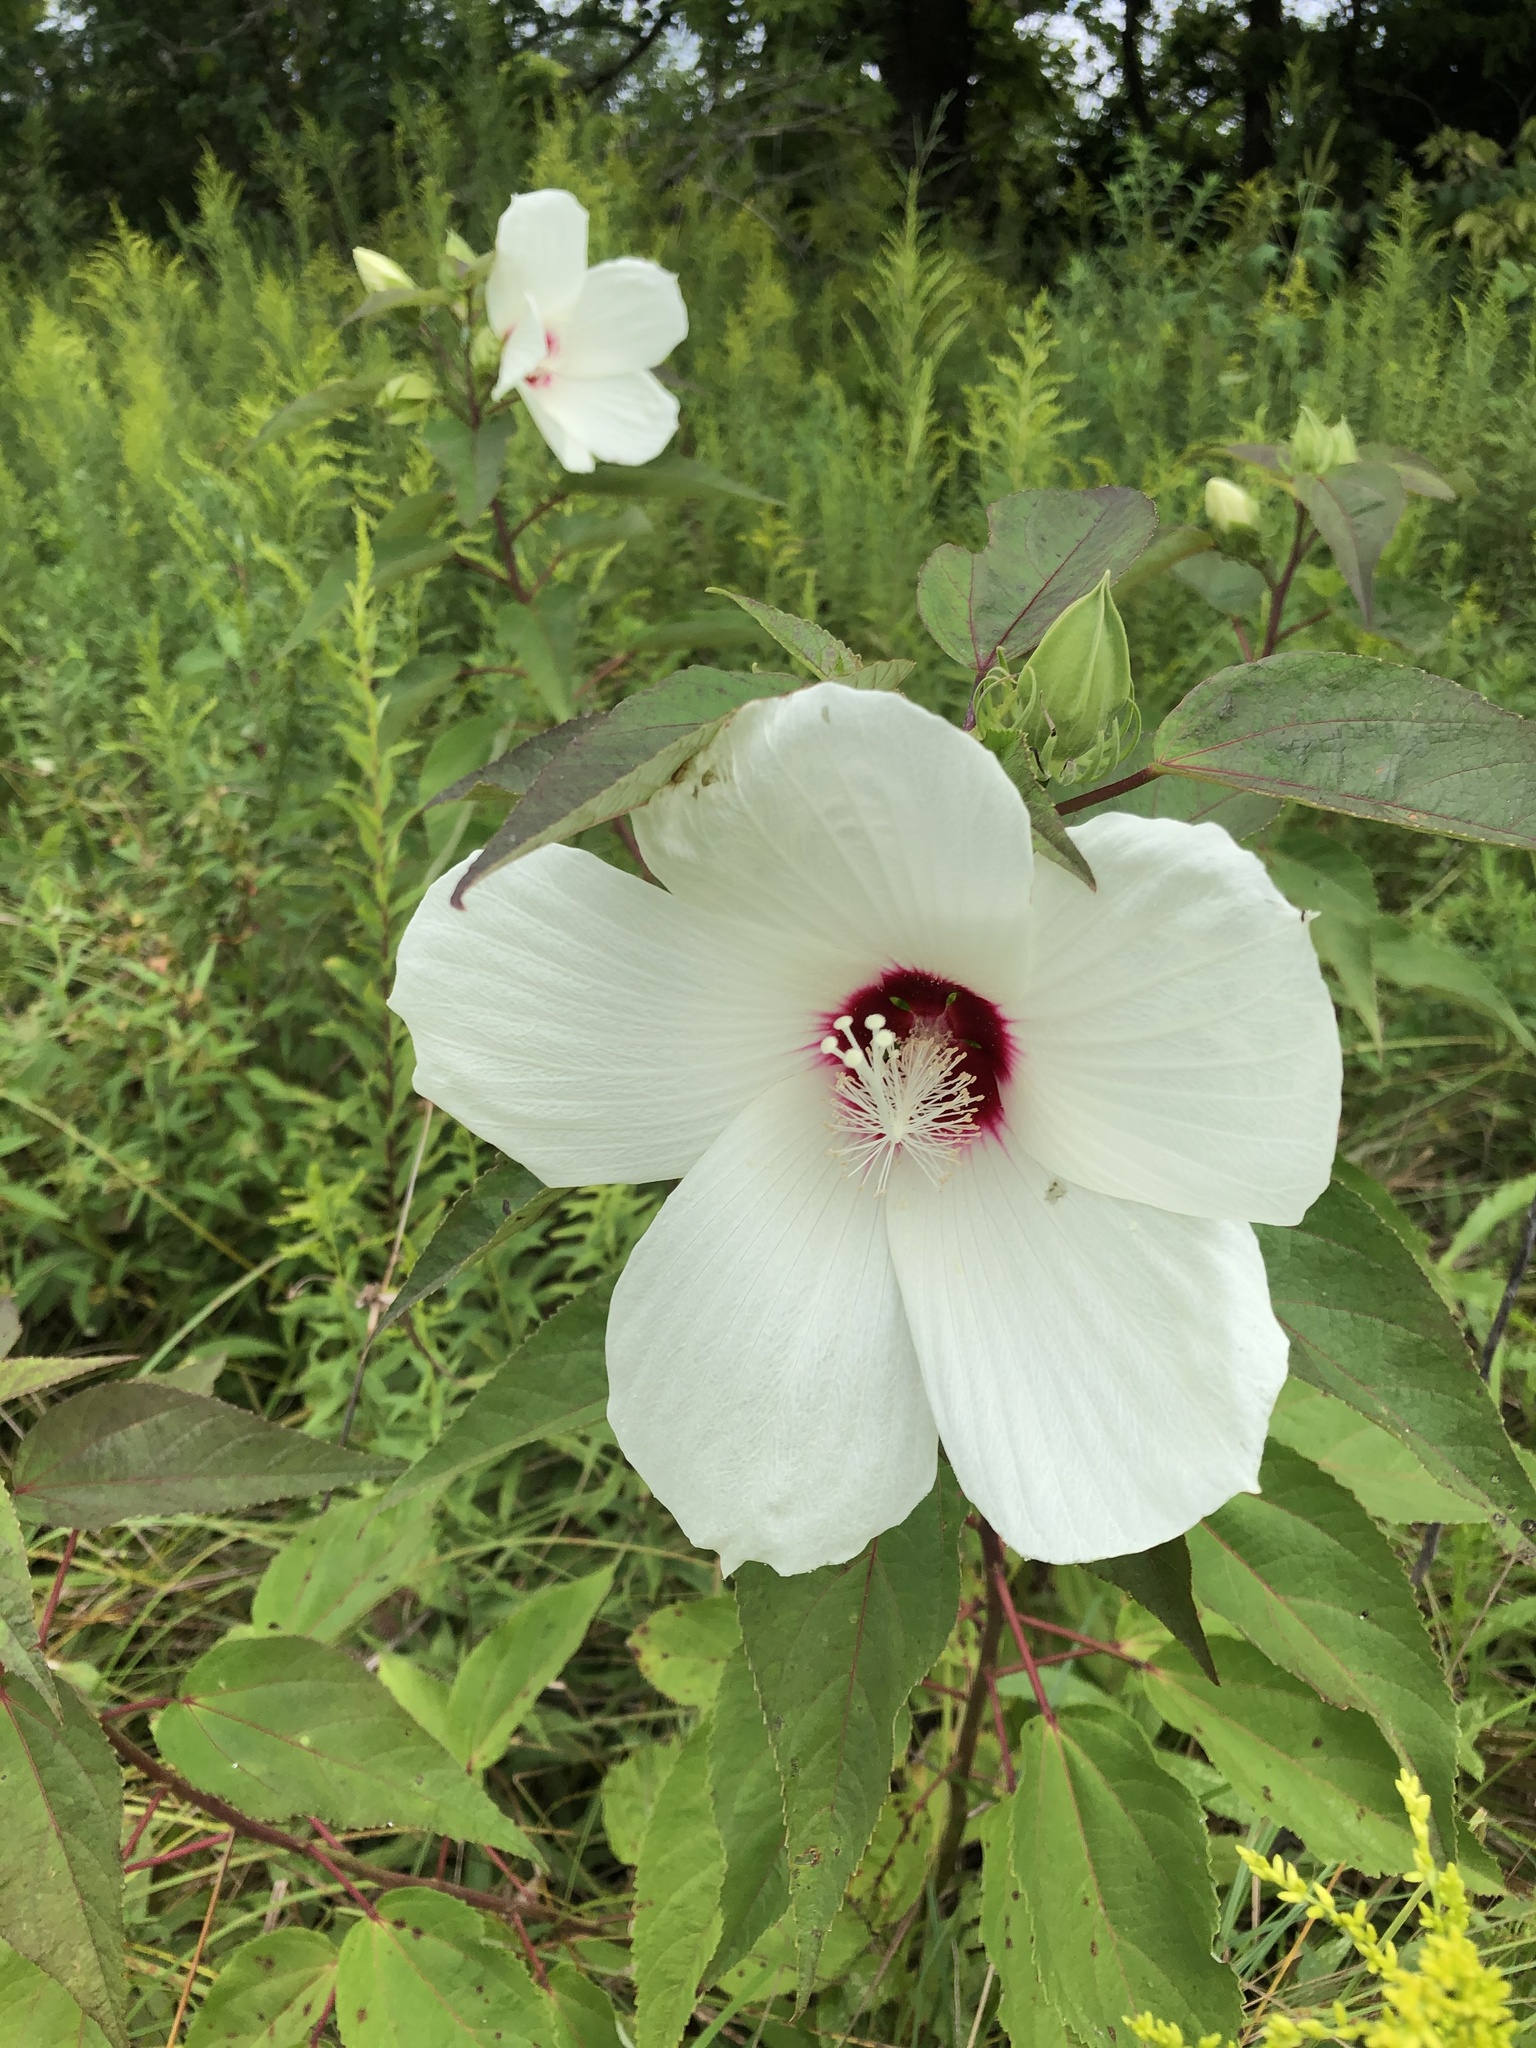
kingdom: Plantae
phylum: Tracheophyta
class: Magnoliopsida
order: Malvales
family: Malvaceae
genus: Hibiscus
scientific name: Hibiscus moscheutos
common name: Common rose-mallow
